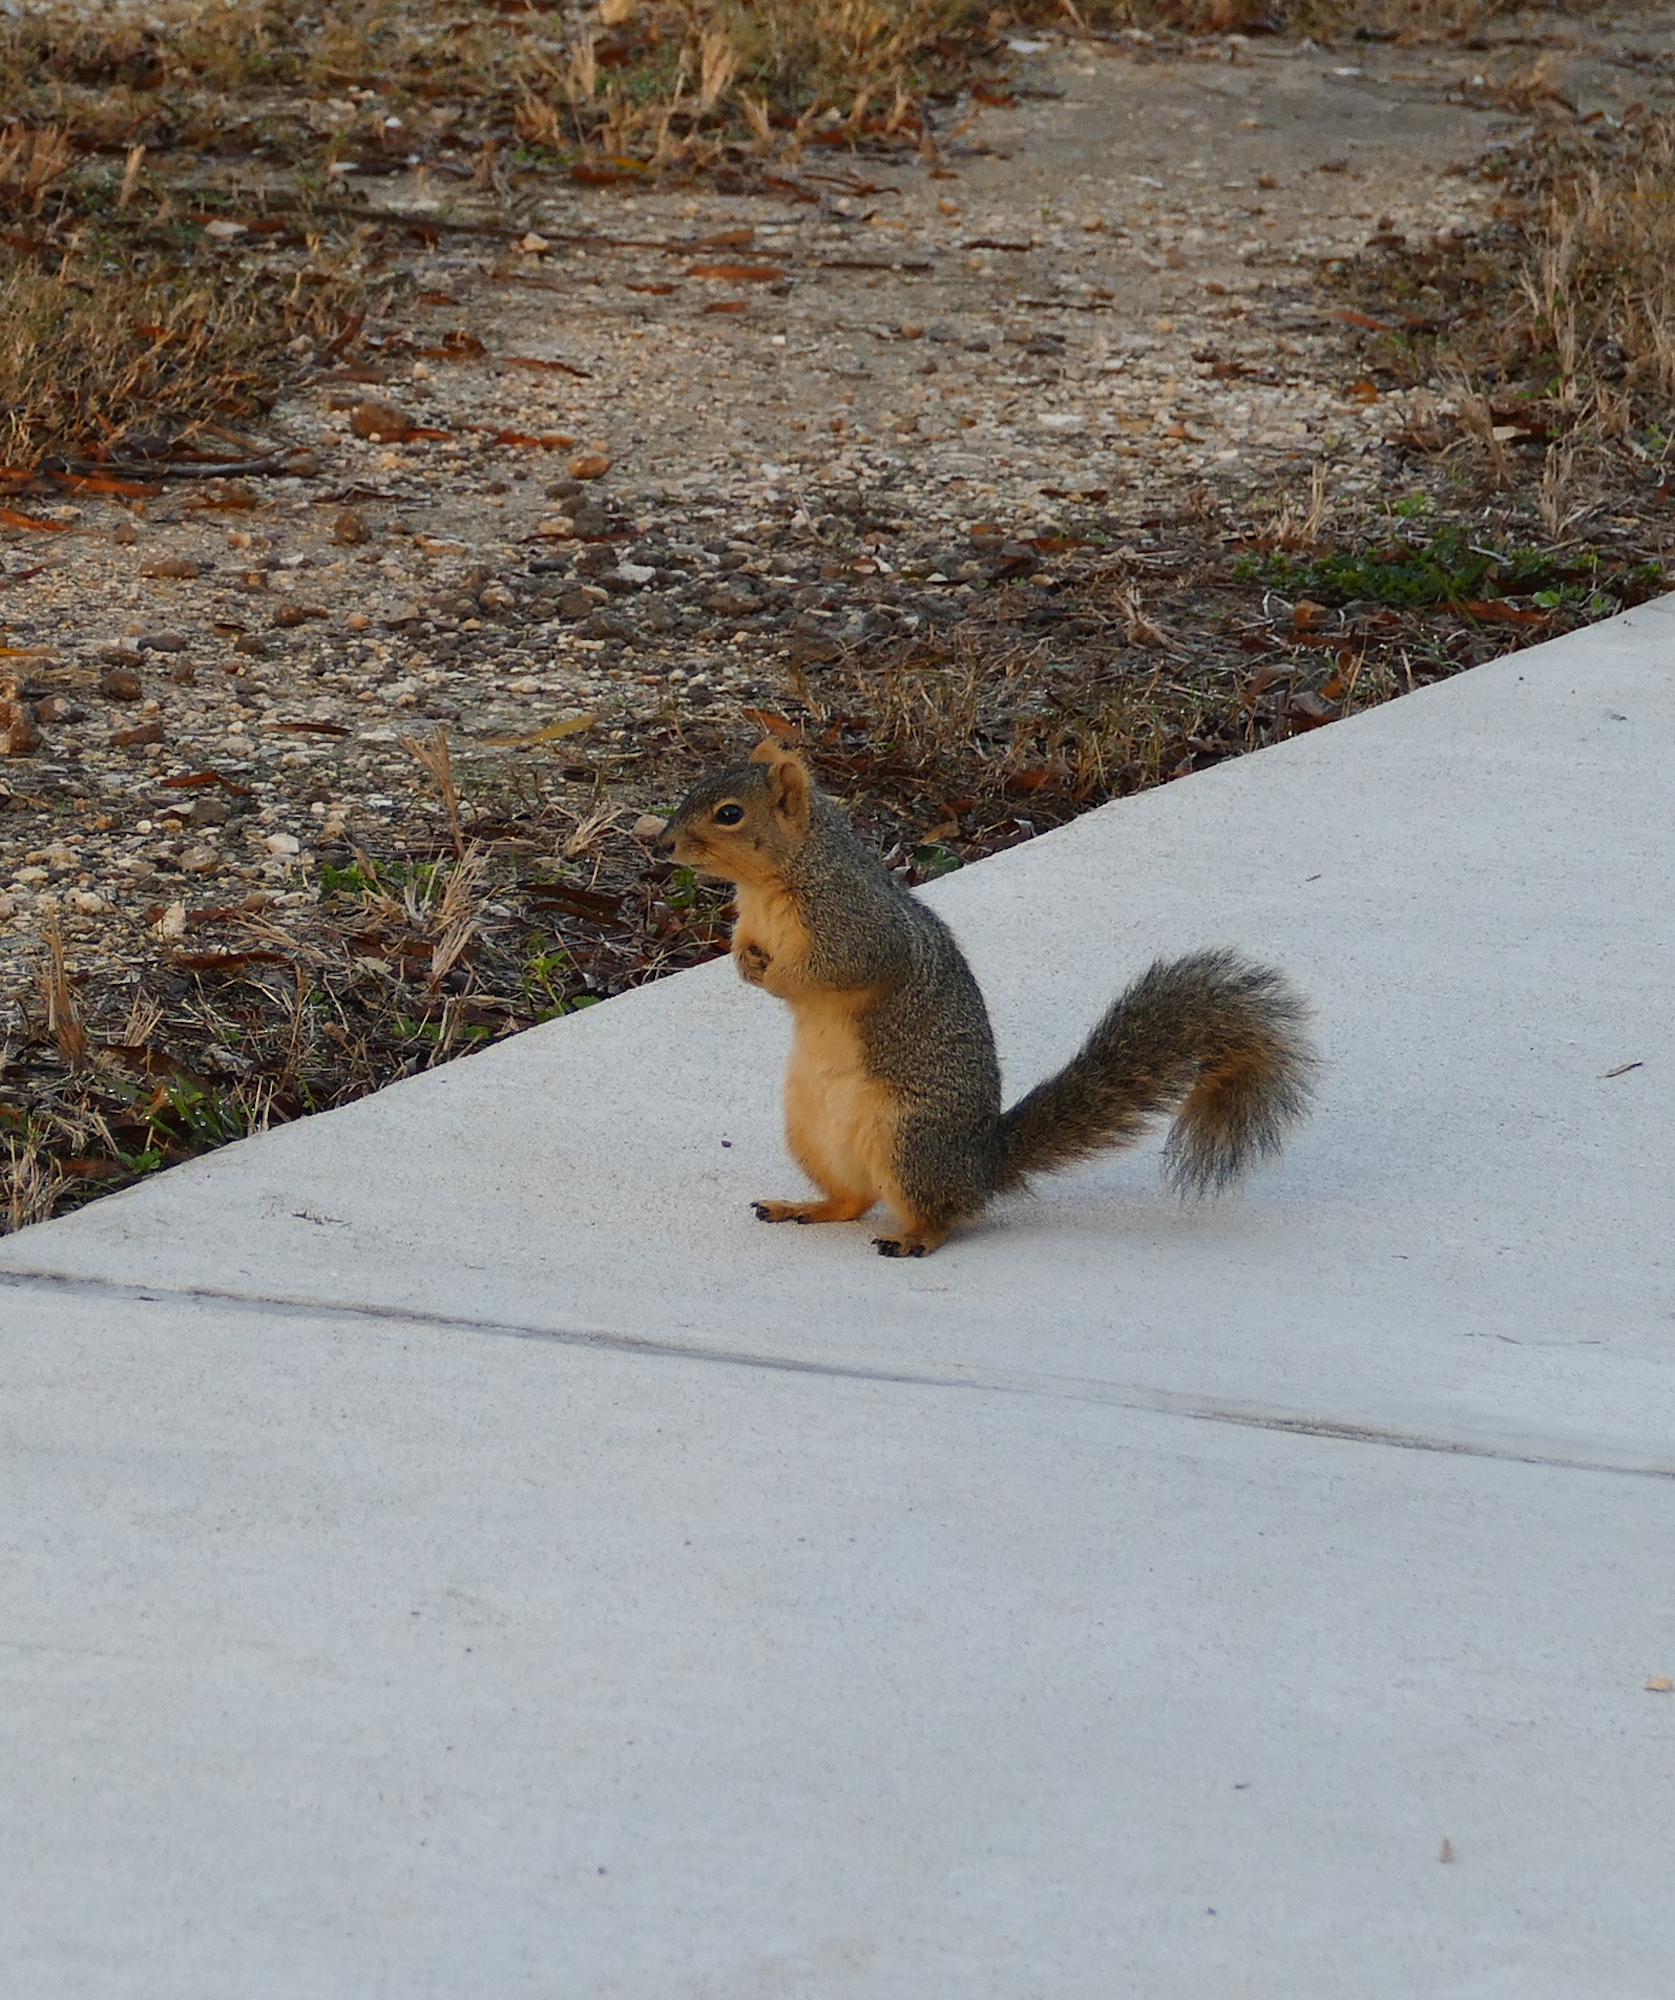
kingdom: Animalia
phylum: Chordata
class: Mammalia
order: Rodentia
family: Sciuridae
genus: Sciurus
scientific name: Sciurus niger
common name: Fox squirrel
